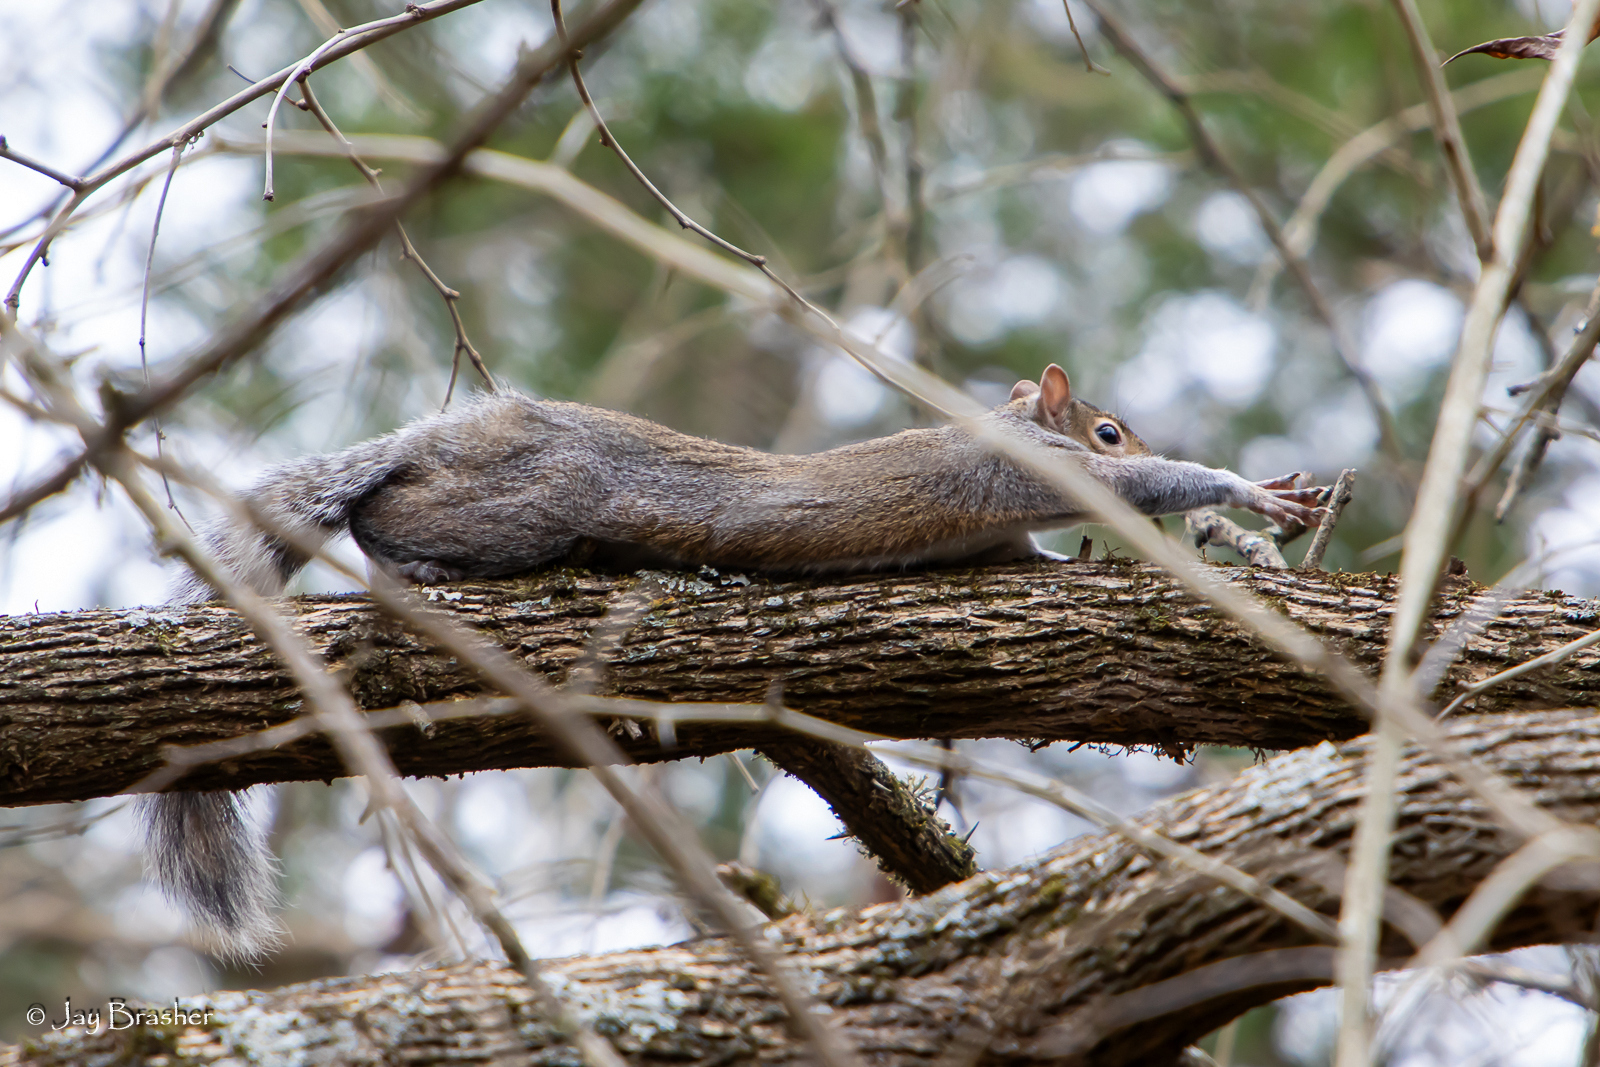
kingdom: Animalia
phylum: Chordata
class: Mammalia
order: Rodentia
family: Sciuridae
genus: Sciurus
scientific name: Sciurus carolinensis
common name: Eastern gray squirrel
